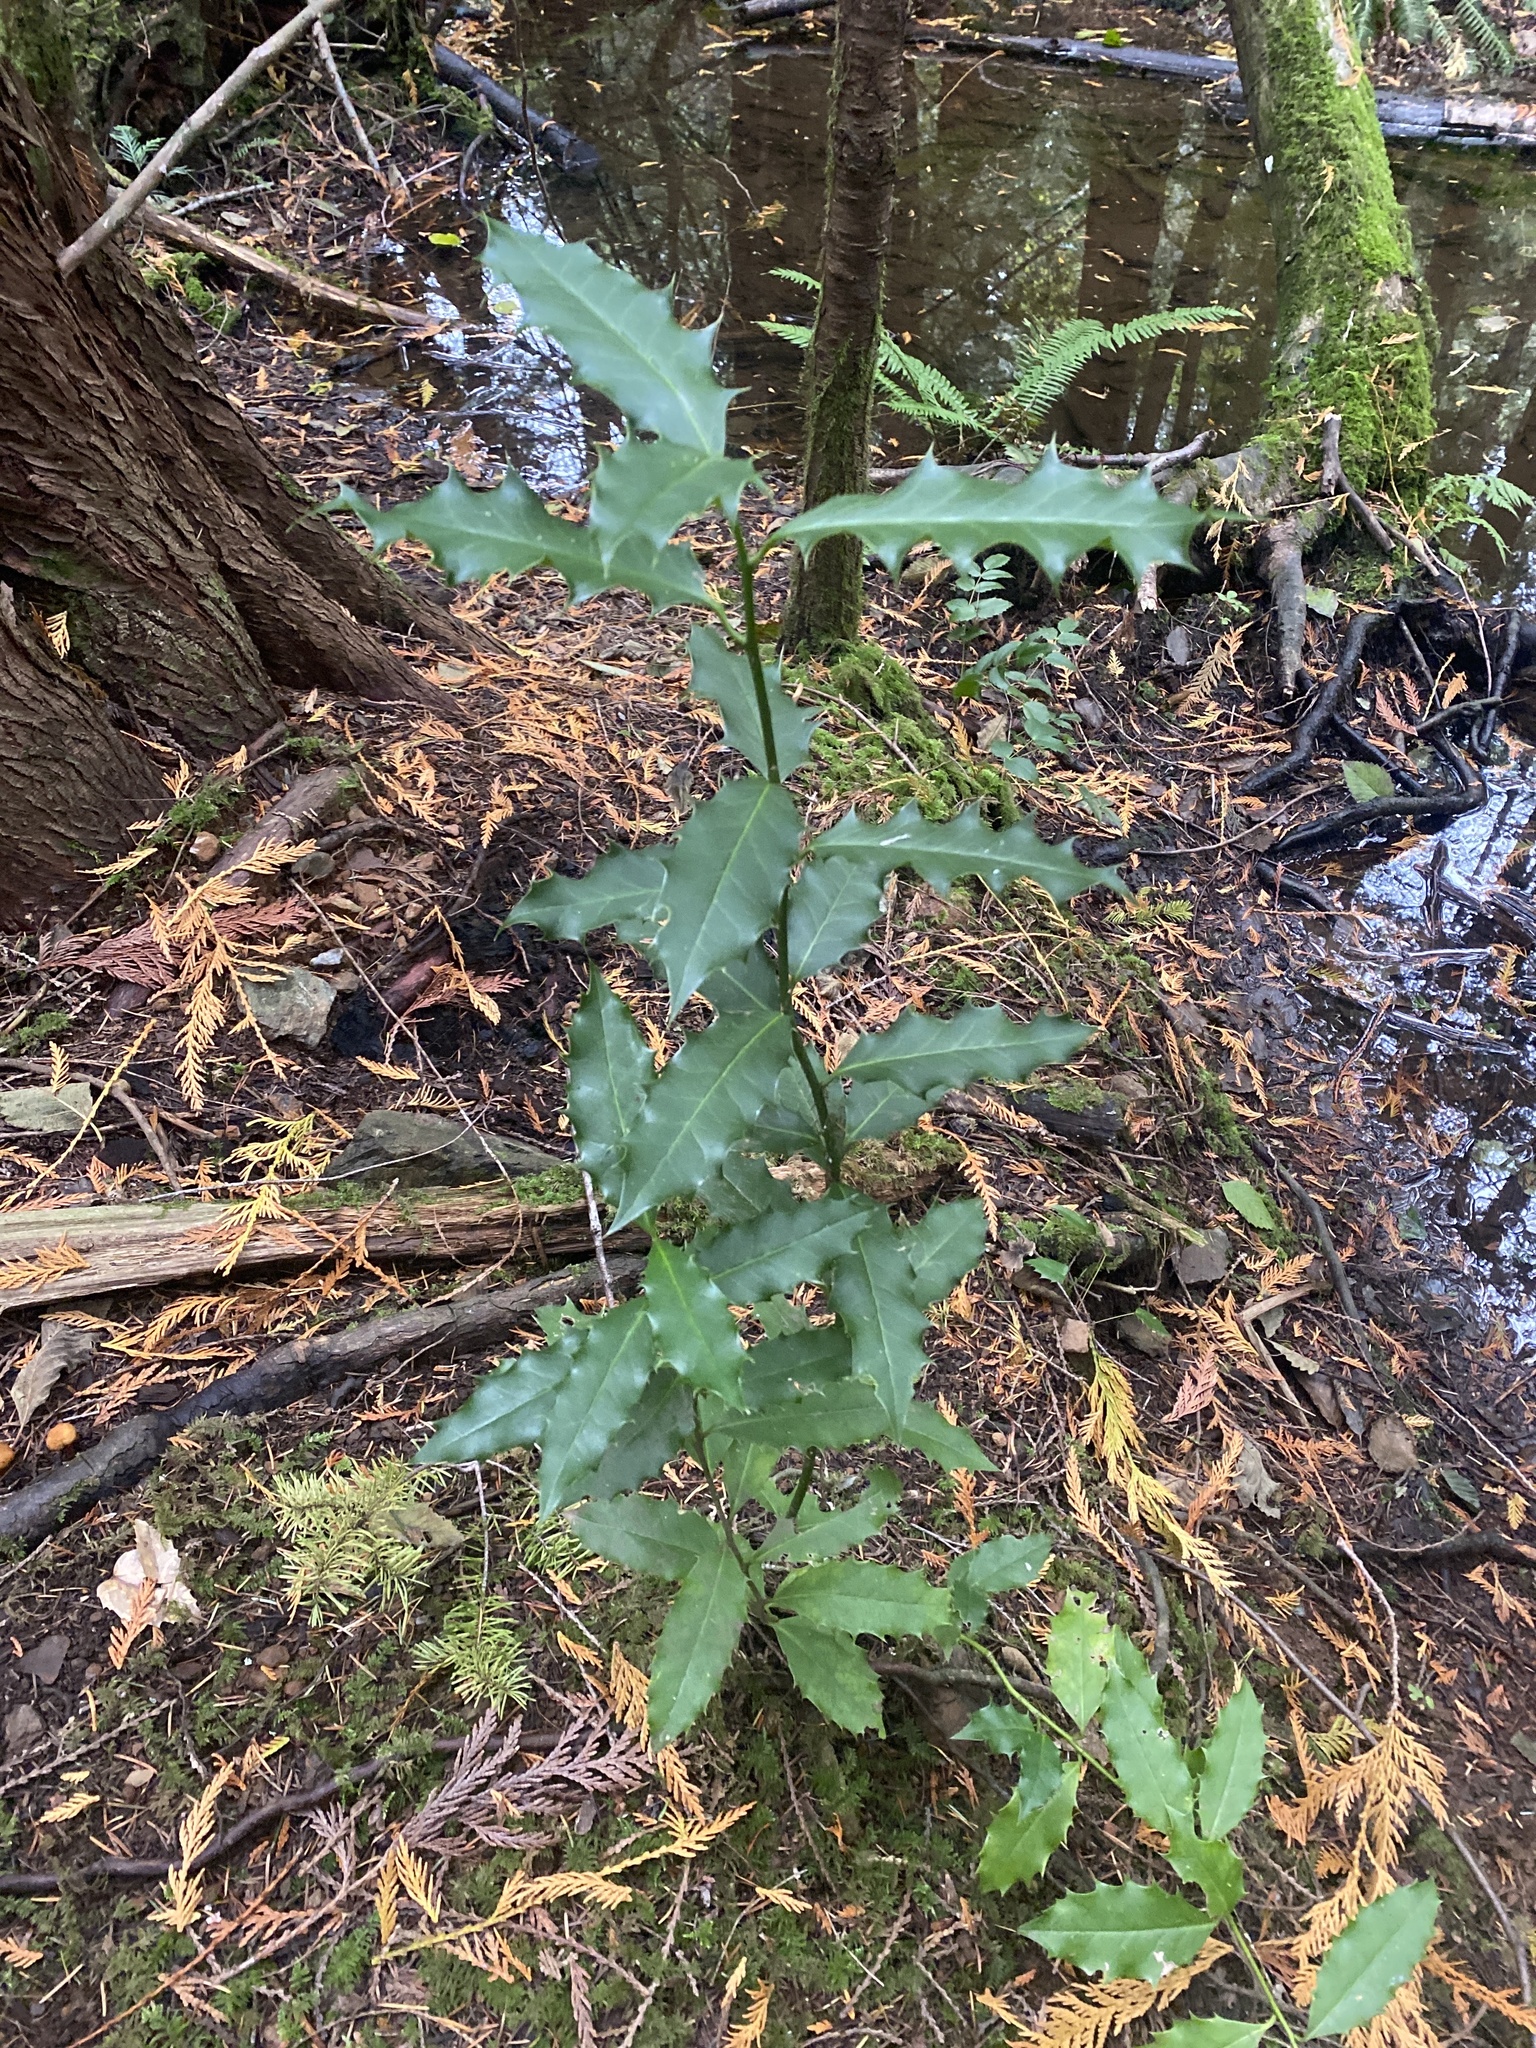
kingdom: Plantae
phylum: Tracheophyta
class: Magnoliopsida
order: Aquifoliales
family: Aquifoliaceae
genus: Ilex
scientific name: Ilex aquifolium
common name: English holly
